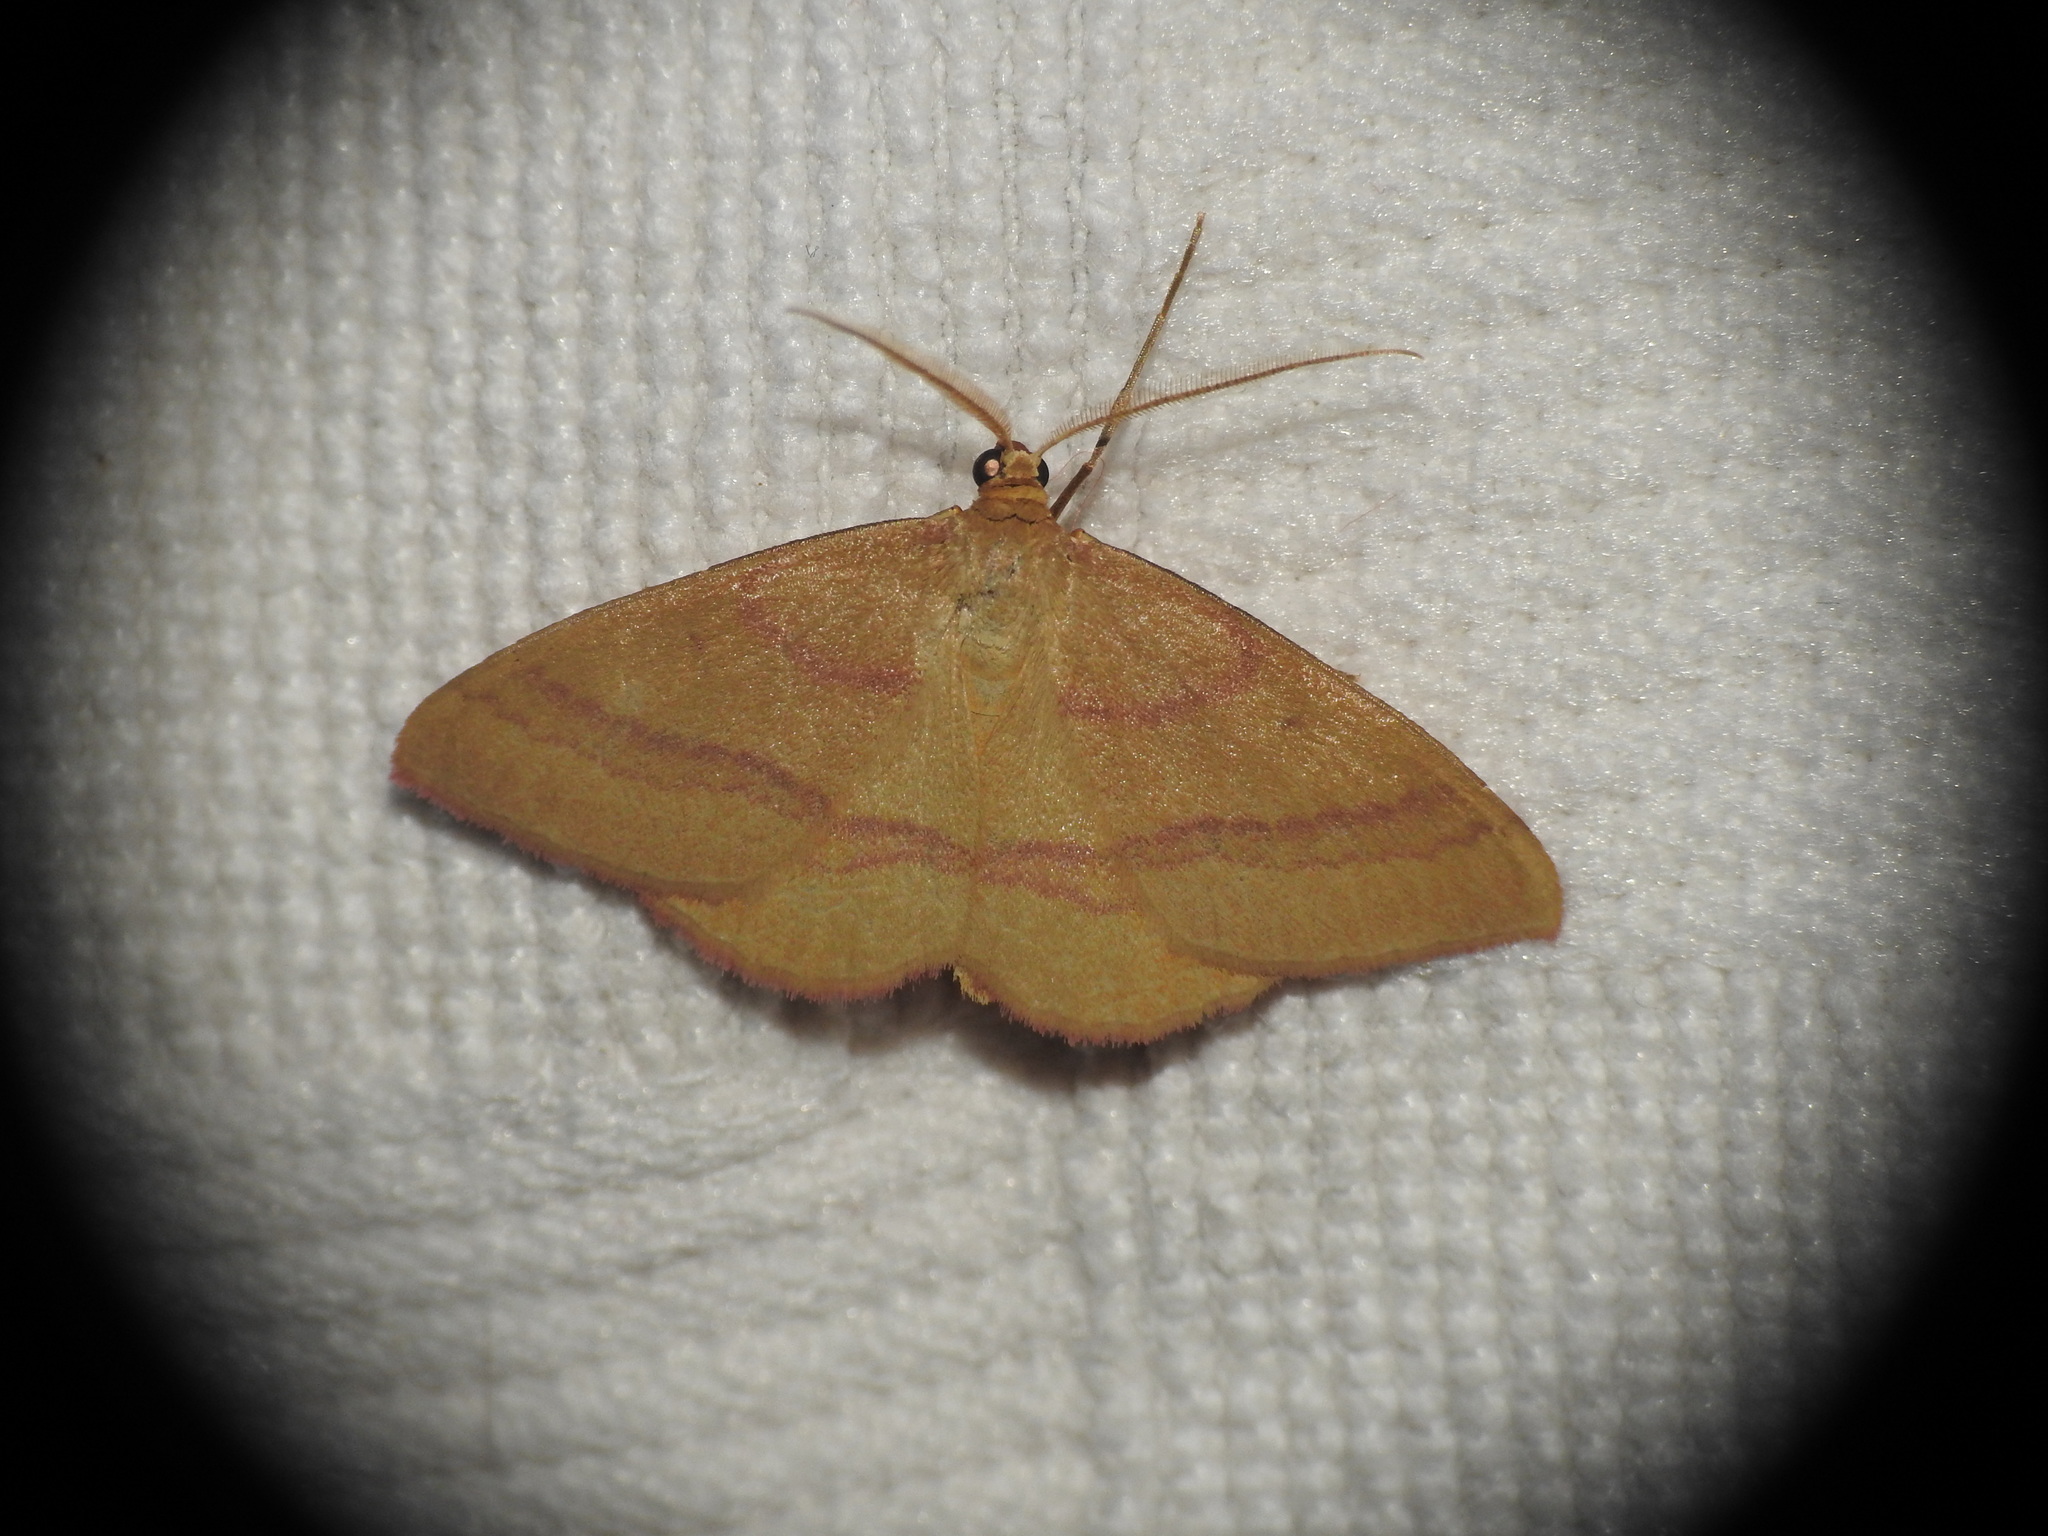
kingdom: Animalia
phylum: Arthropoda
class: Insecta
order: Lepidoptera
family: Geometridae
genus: Rhodostrophia
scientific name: Rhodostrophia calabra
